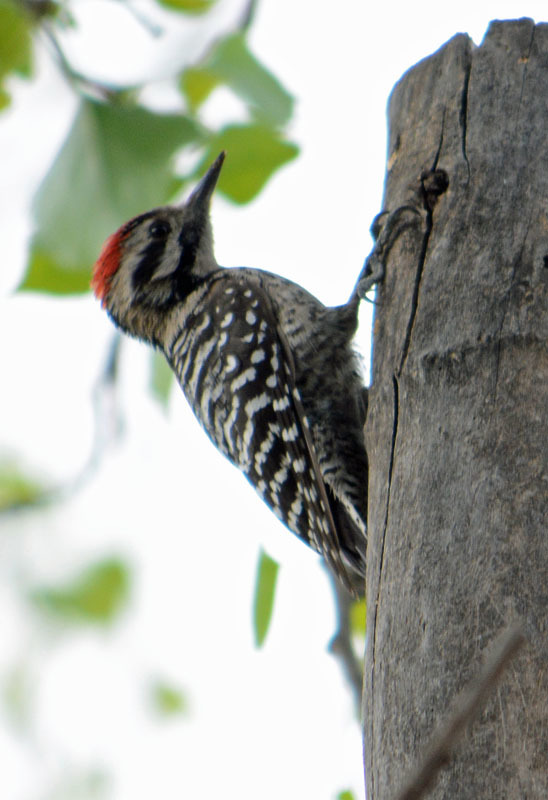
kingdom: Animalia
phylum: Chordata
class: Aves
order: Piciformes
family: Picidae
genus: Dryobates
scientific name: Dryobates scalaris
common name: Ladder-backed woodpecker
